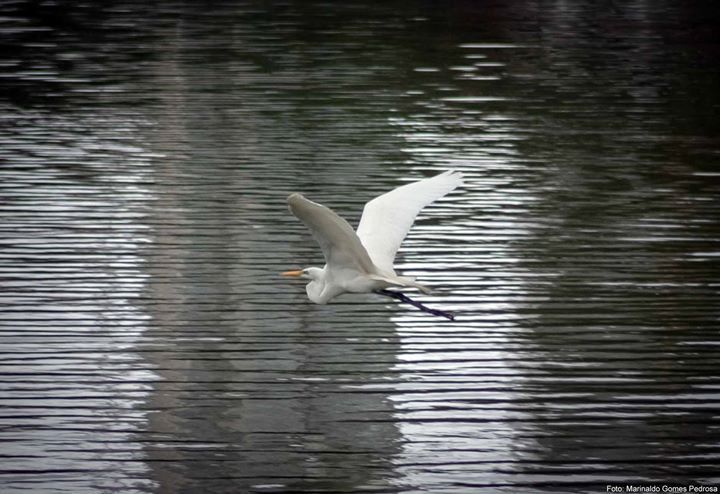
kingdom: Animalia
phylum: Chordata
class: Aves
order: Pelecaniformes
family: Ardeidae
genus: Ardea
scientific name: Ardea alba
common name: Great egret
